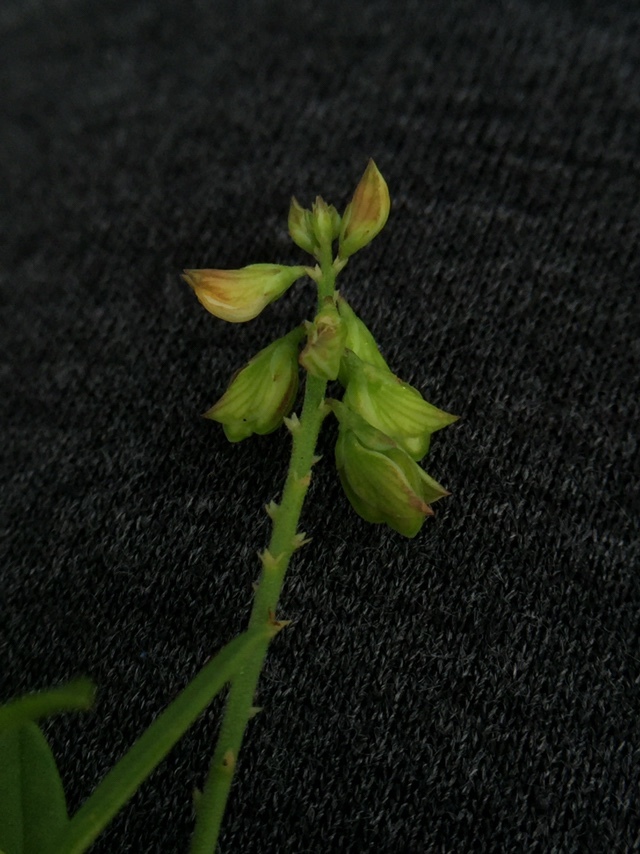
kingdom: Plantae
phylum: Tracheophyta
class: Magnoliopsida
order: Fabales
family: Polygalaceae
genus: Polygala
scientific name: Polygala
